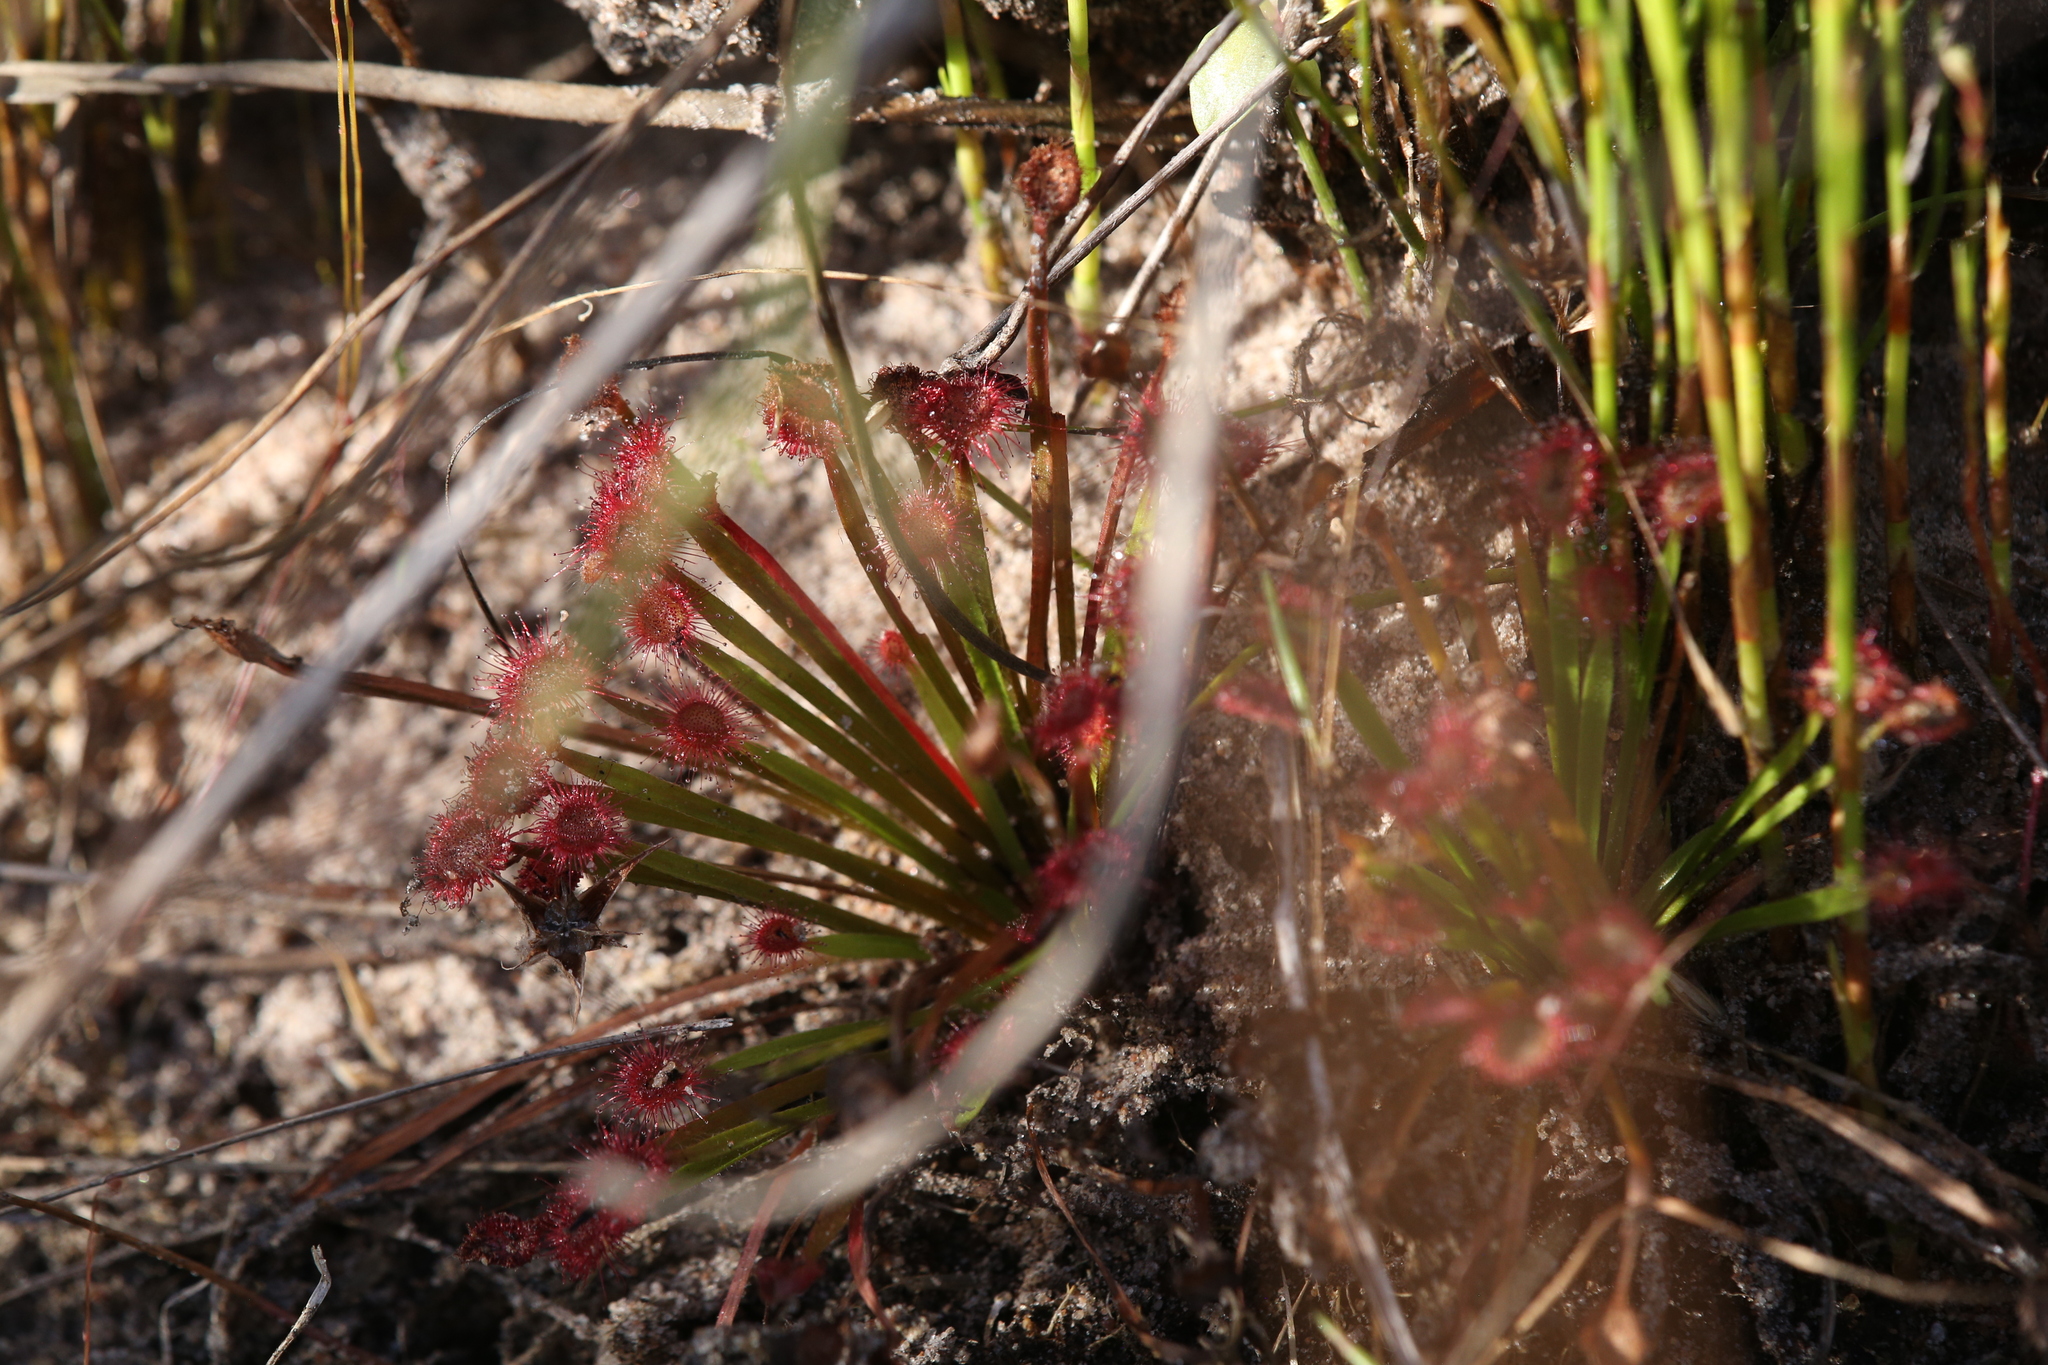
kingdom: Plantae
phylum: Tracheophyta
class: Magnoliopsida
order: Caryophyllales
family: Droseraceae
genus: Drosera
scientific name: Drosera dilatatopetiolaris
